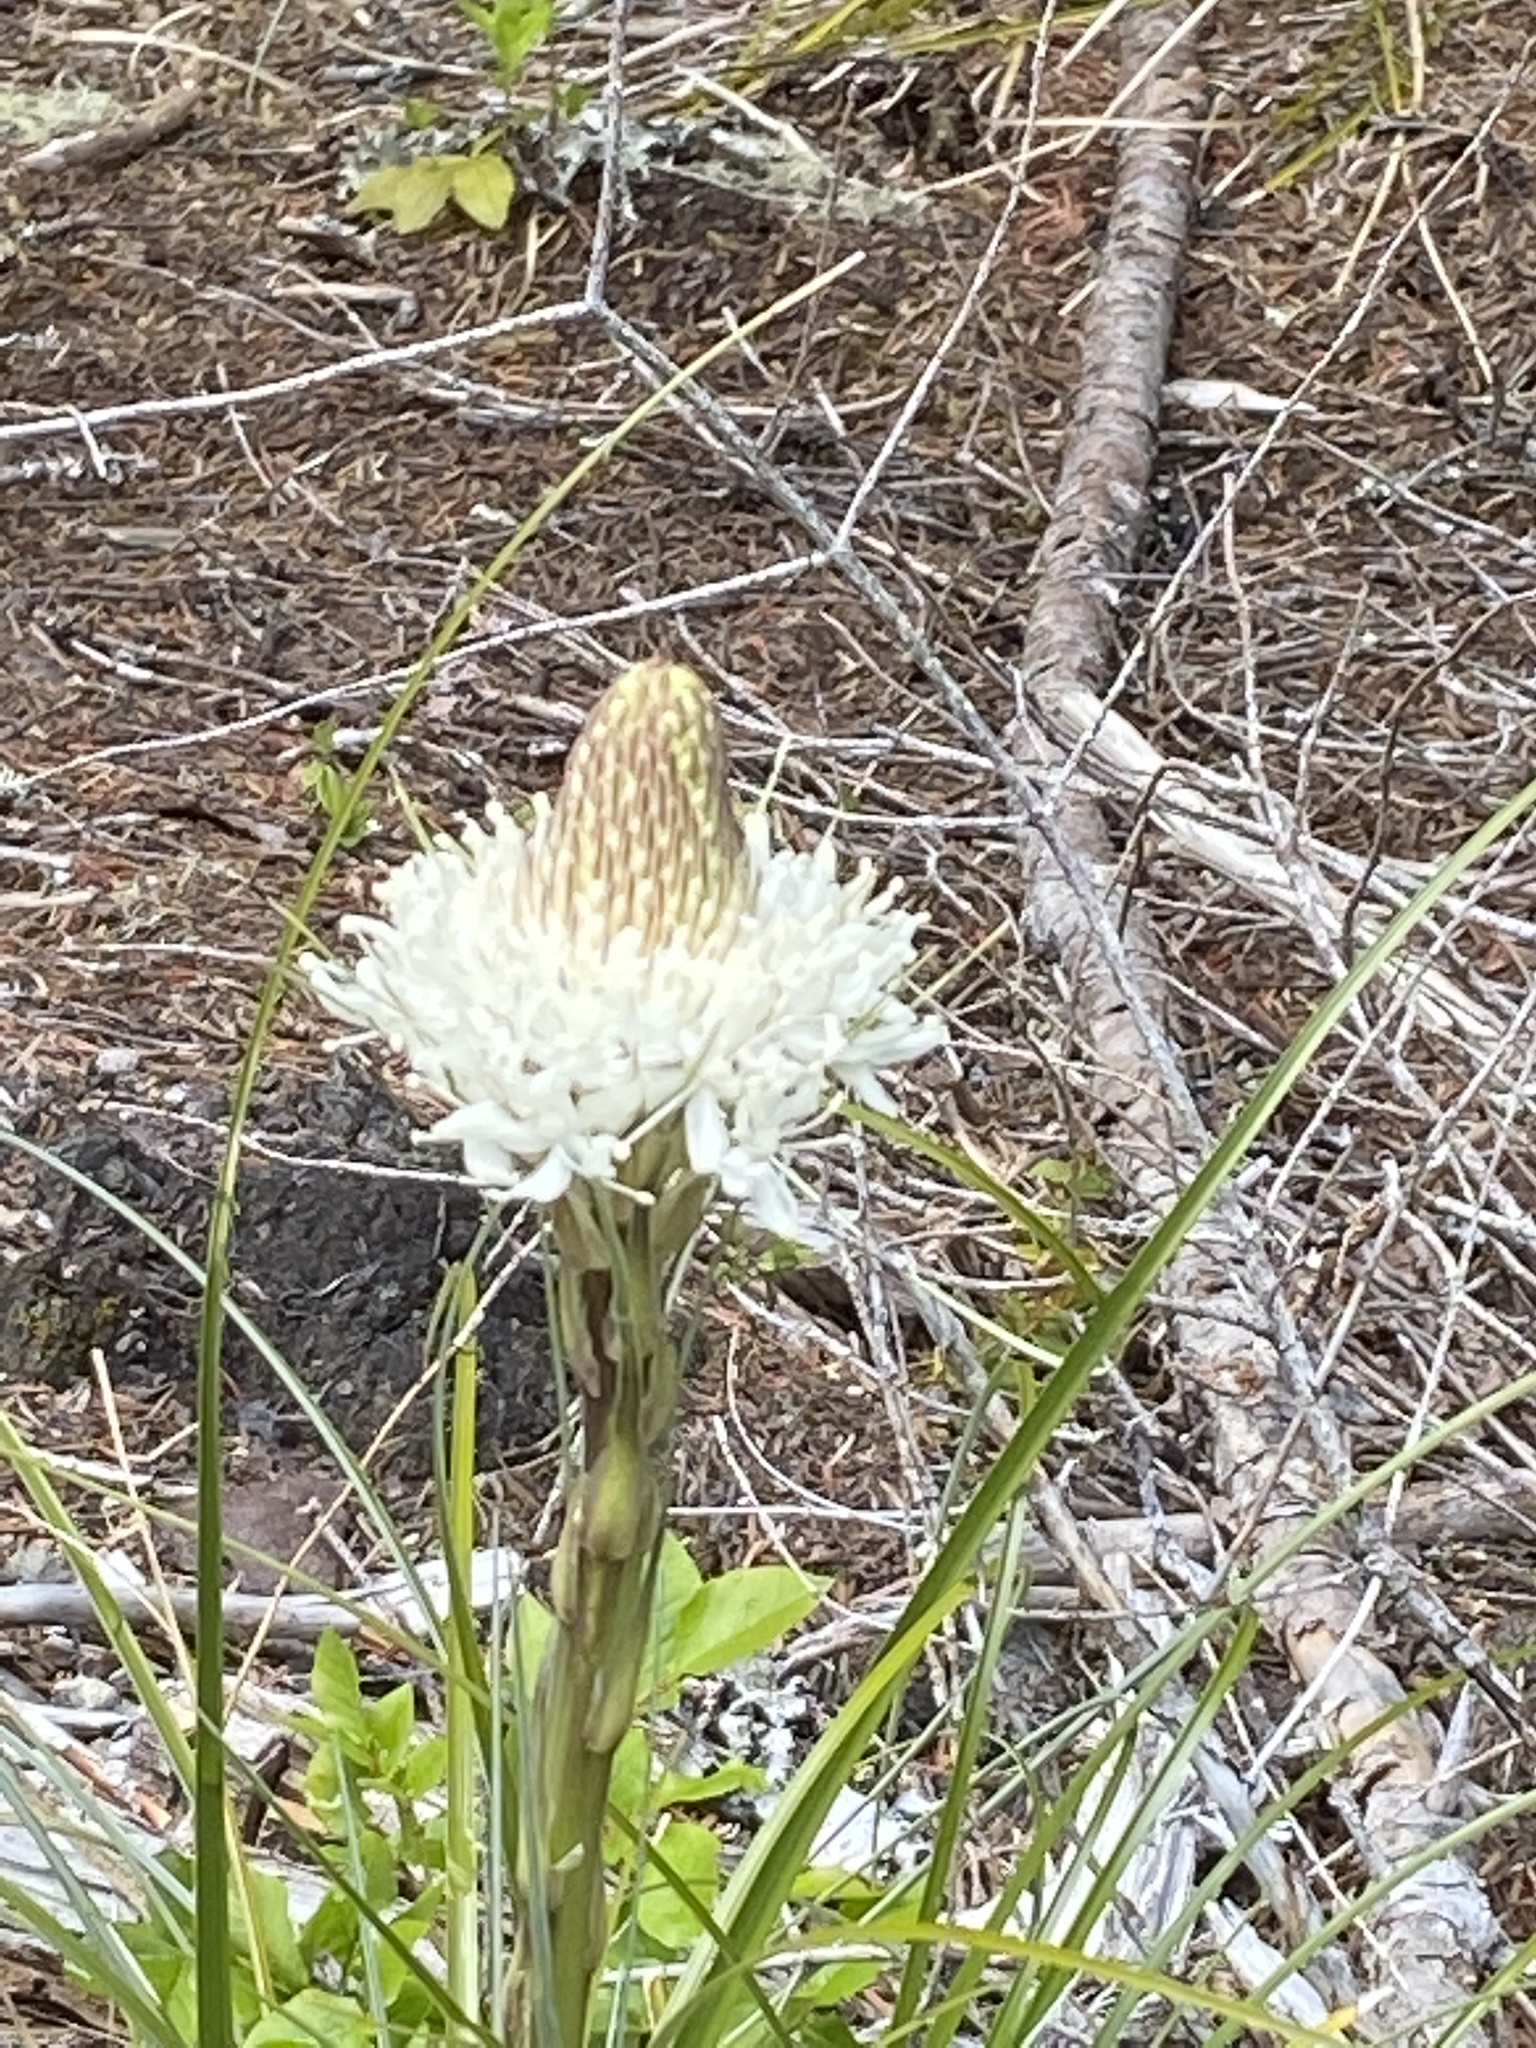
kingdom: Plantae
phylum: Tracheophyta
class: Liliopsida
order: Liliales
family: Melanthiaceae
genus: Xerophyllum
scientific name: Xerophyllum tenax
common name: Bear-grass
